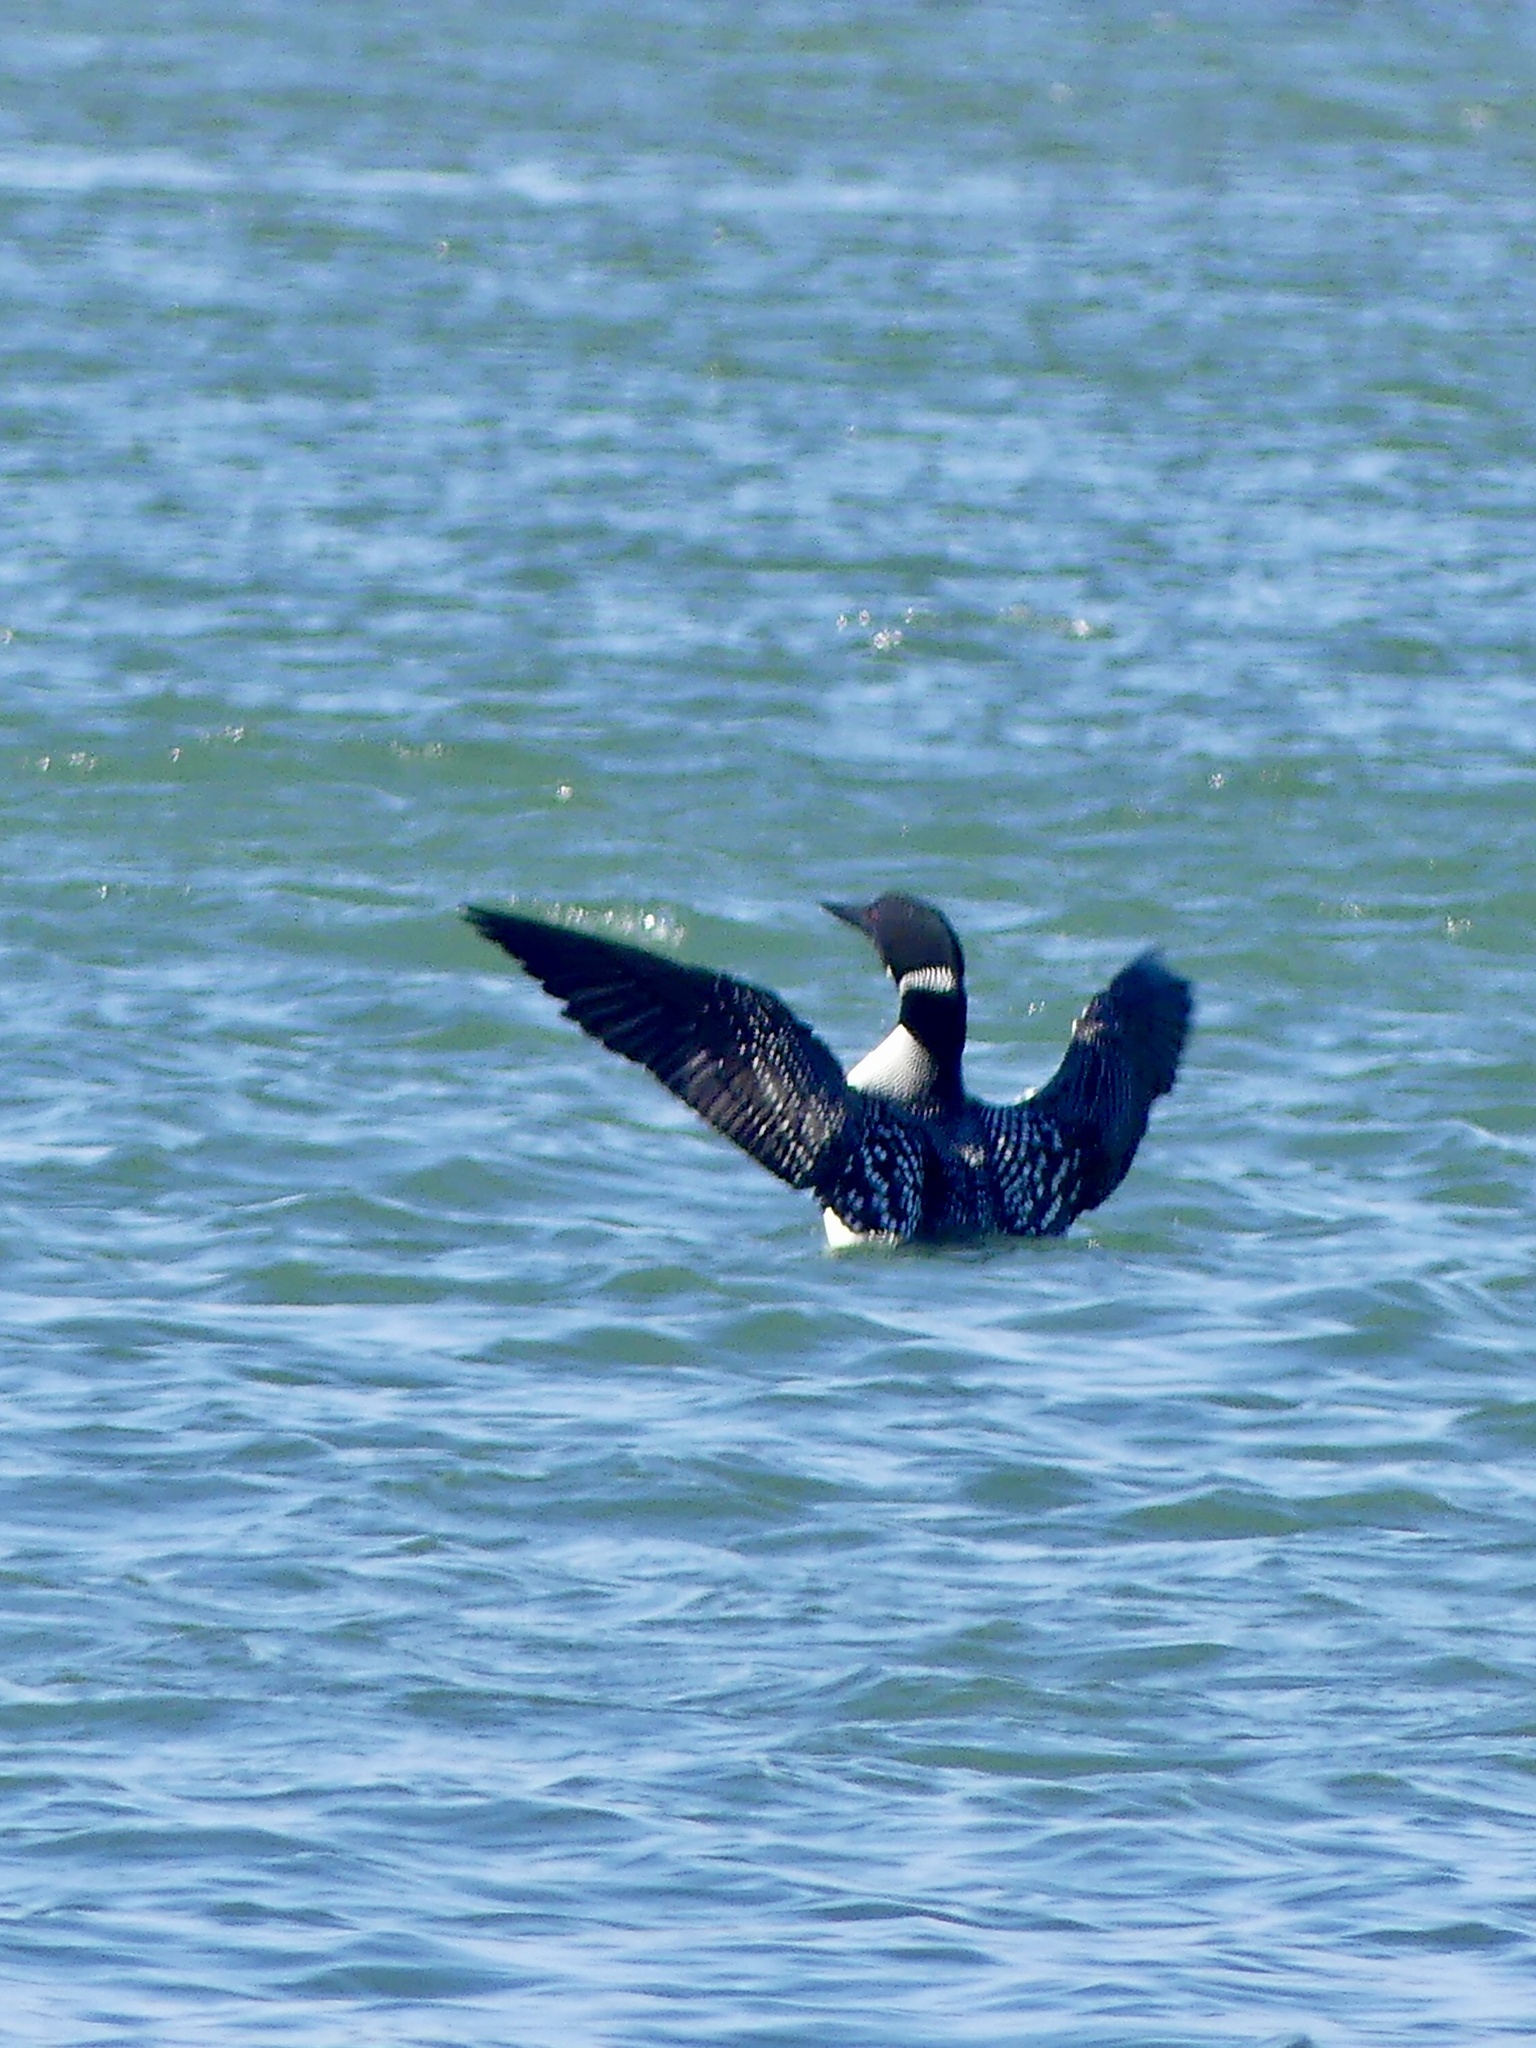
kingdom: Animalia
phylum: Chordata
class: Aves
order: Gaviiformes
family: Gaviidae
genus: Gavia
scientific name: Gavia immer
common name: Common loon
